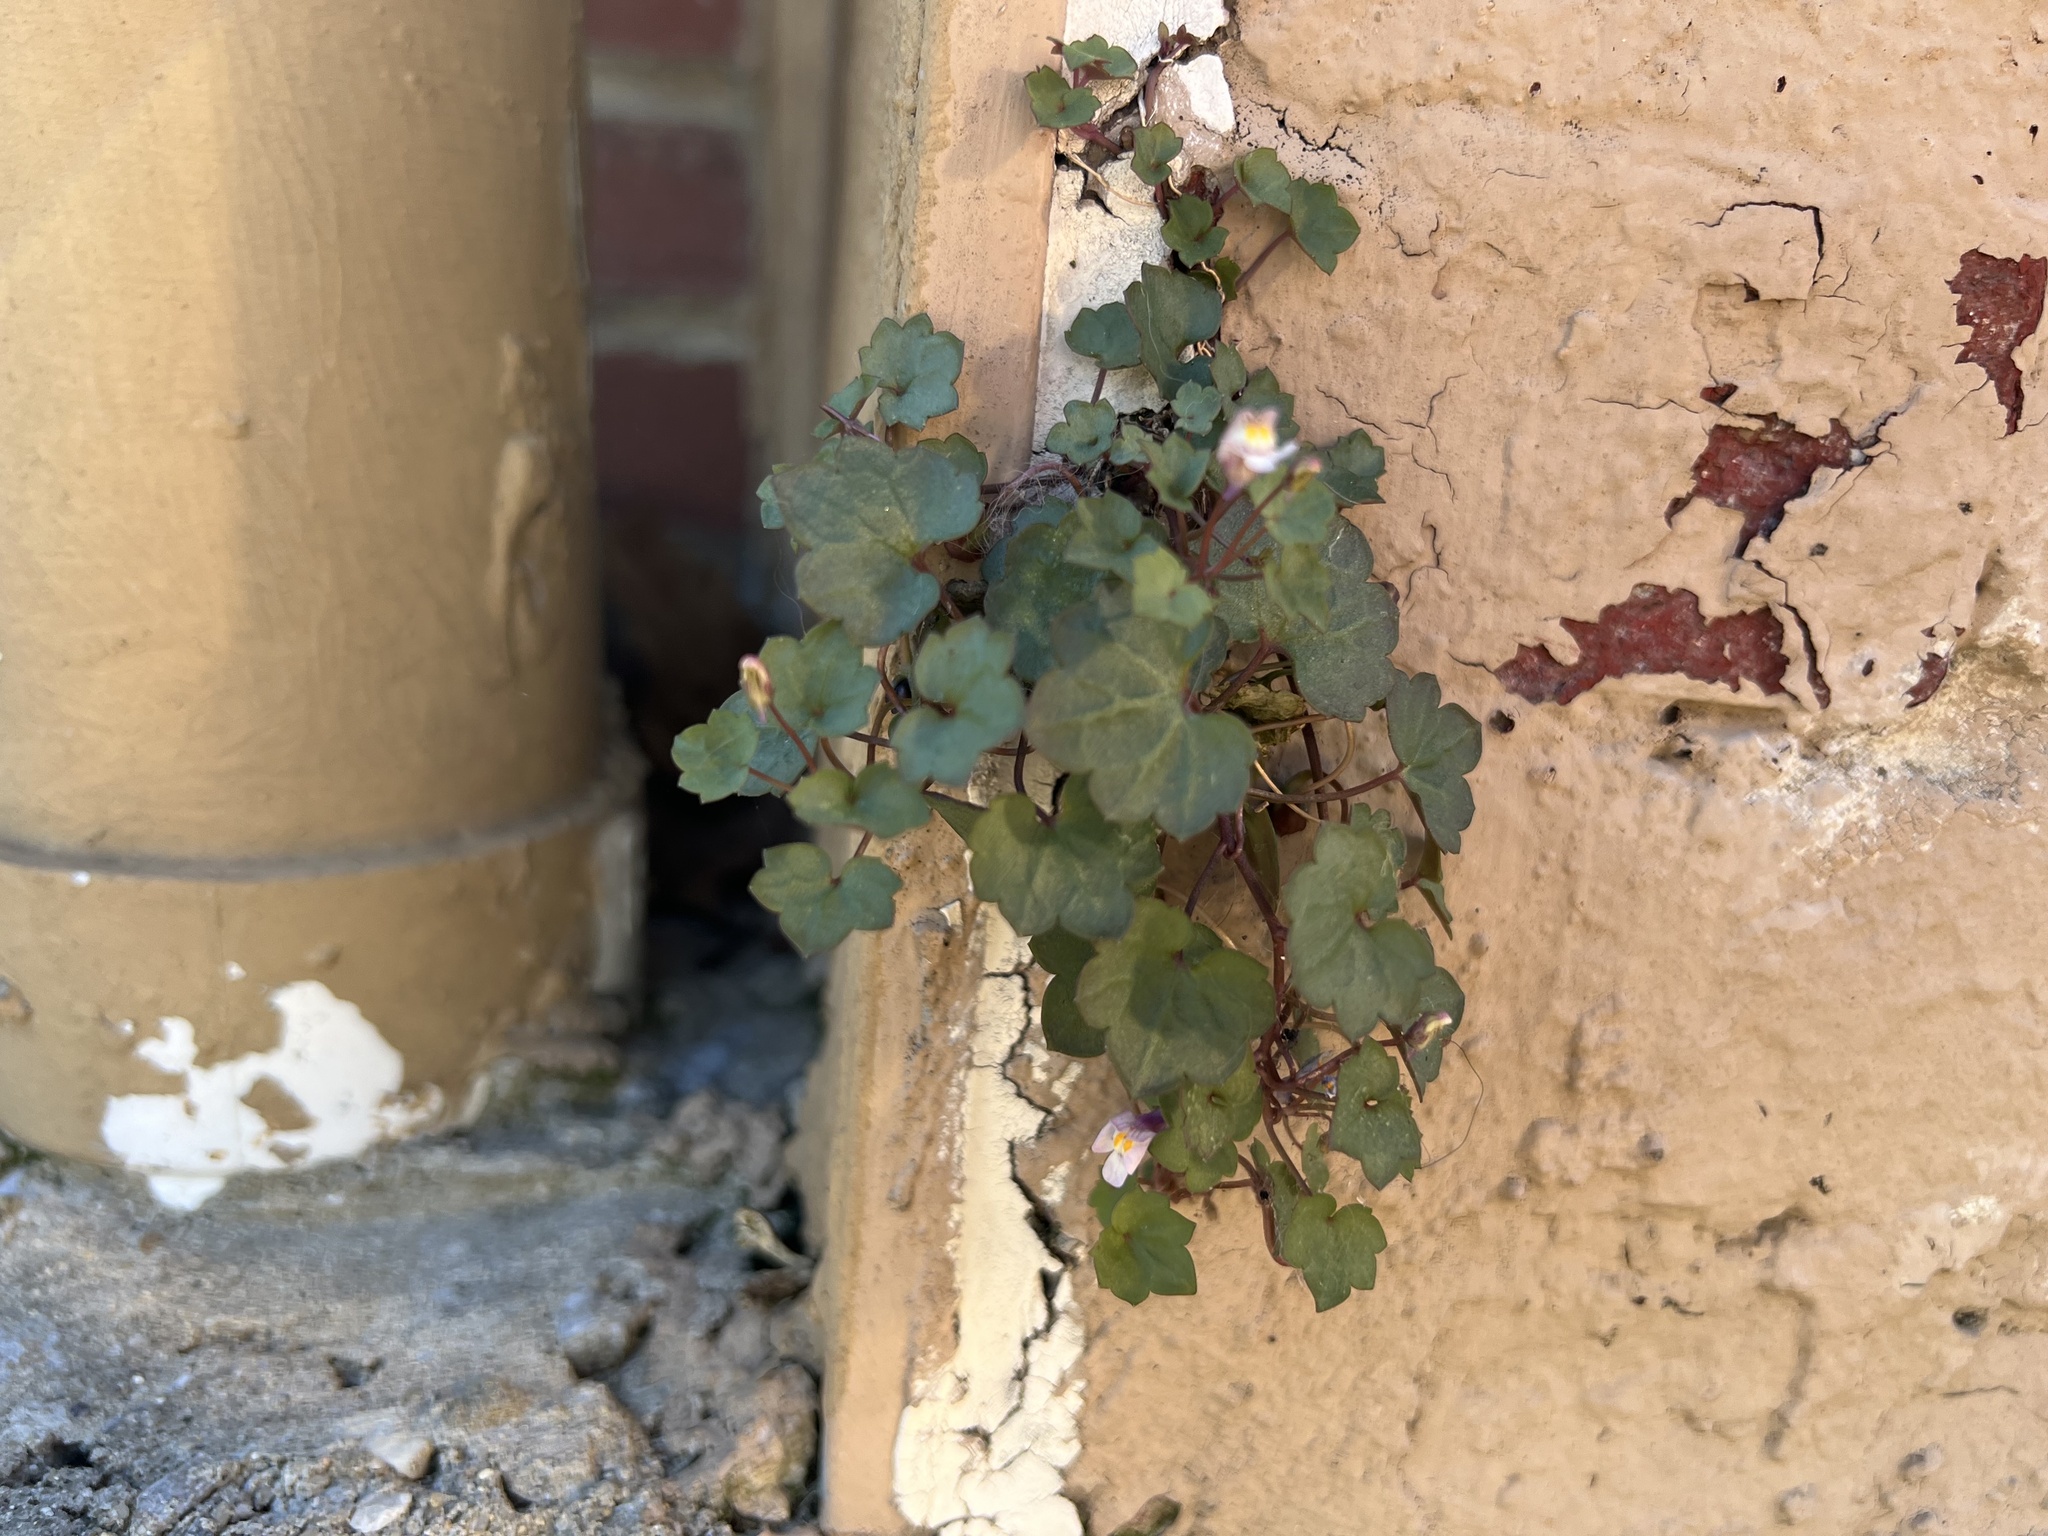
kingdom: Plantae
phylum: Tracheophyta
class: Magnoliopsida
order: Lamiales
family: Plantaginaceae
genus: Cymbalaria
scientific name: Cymbalaria muralis
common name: Ivy-leaved toadflax
